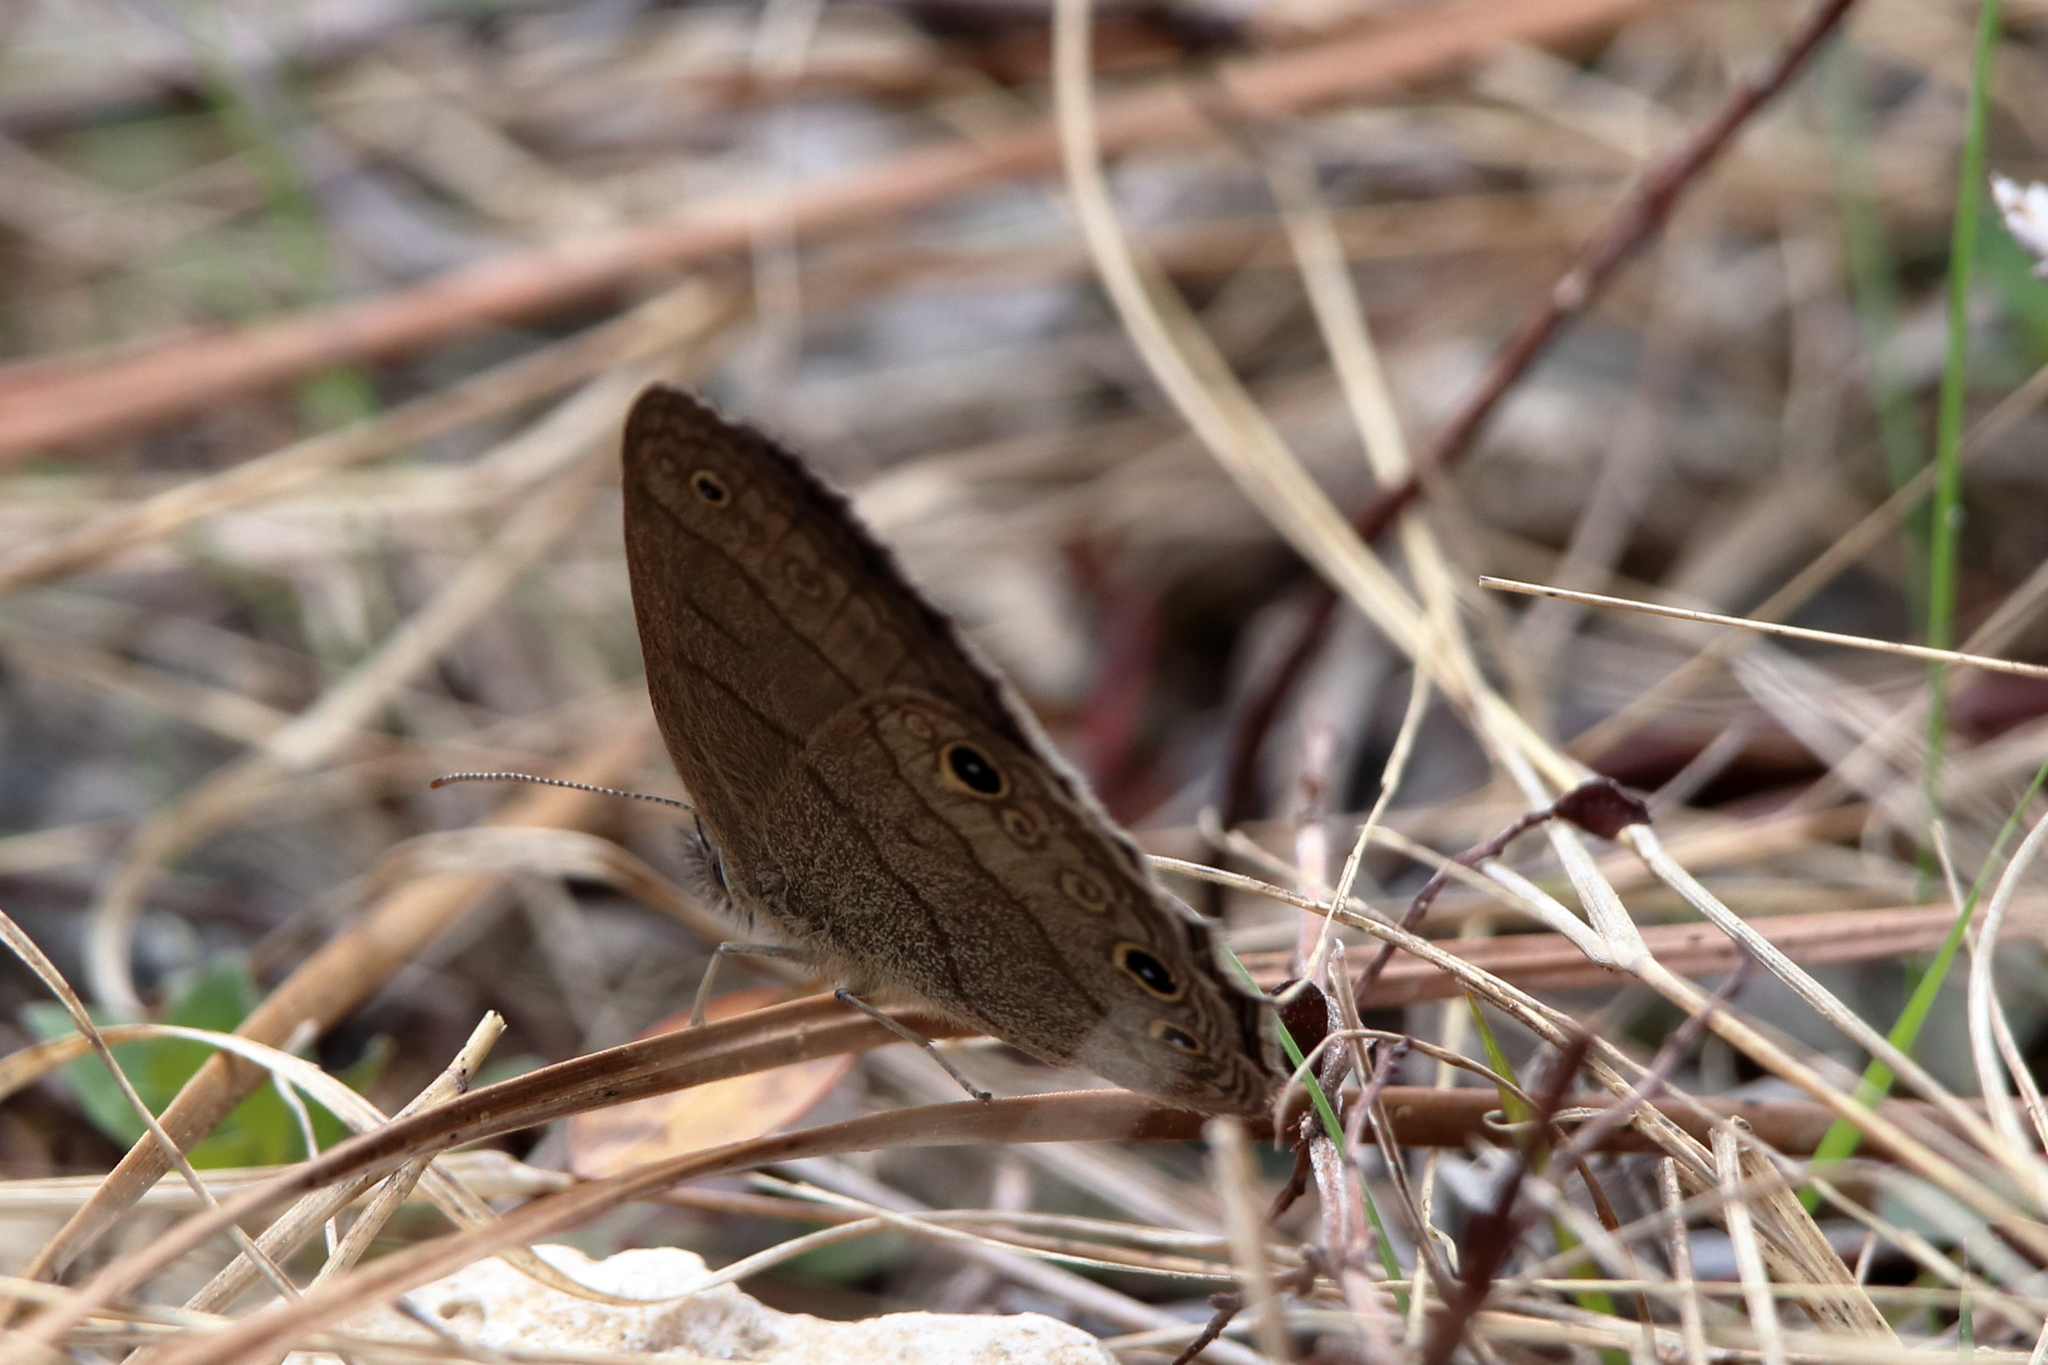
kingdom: Animalia
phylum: Arthropoda
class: Insecta
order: Lepidoptera
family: Nymphalidae
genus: Hermeuptychia
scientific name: Hermeuptychia hermes
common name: Hermes satyr
